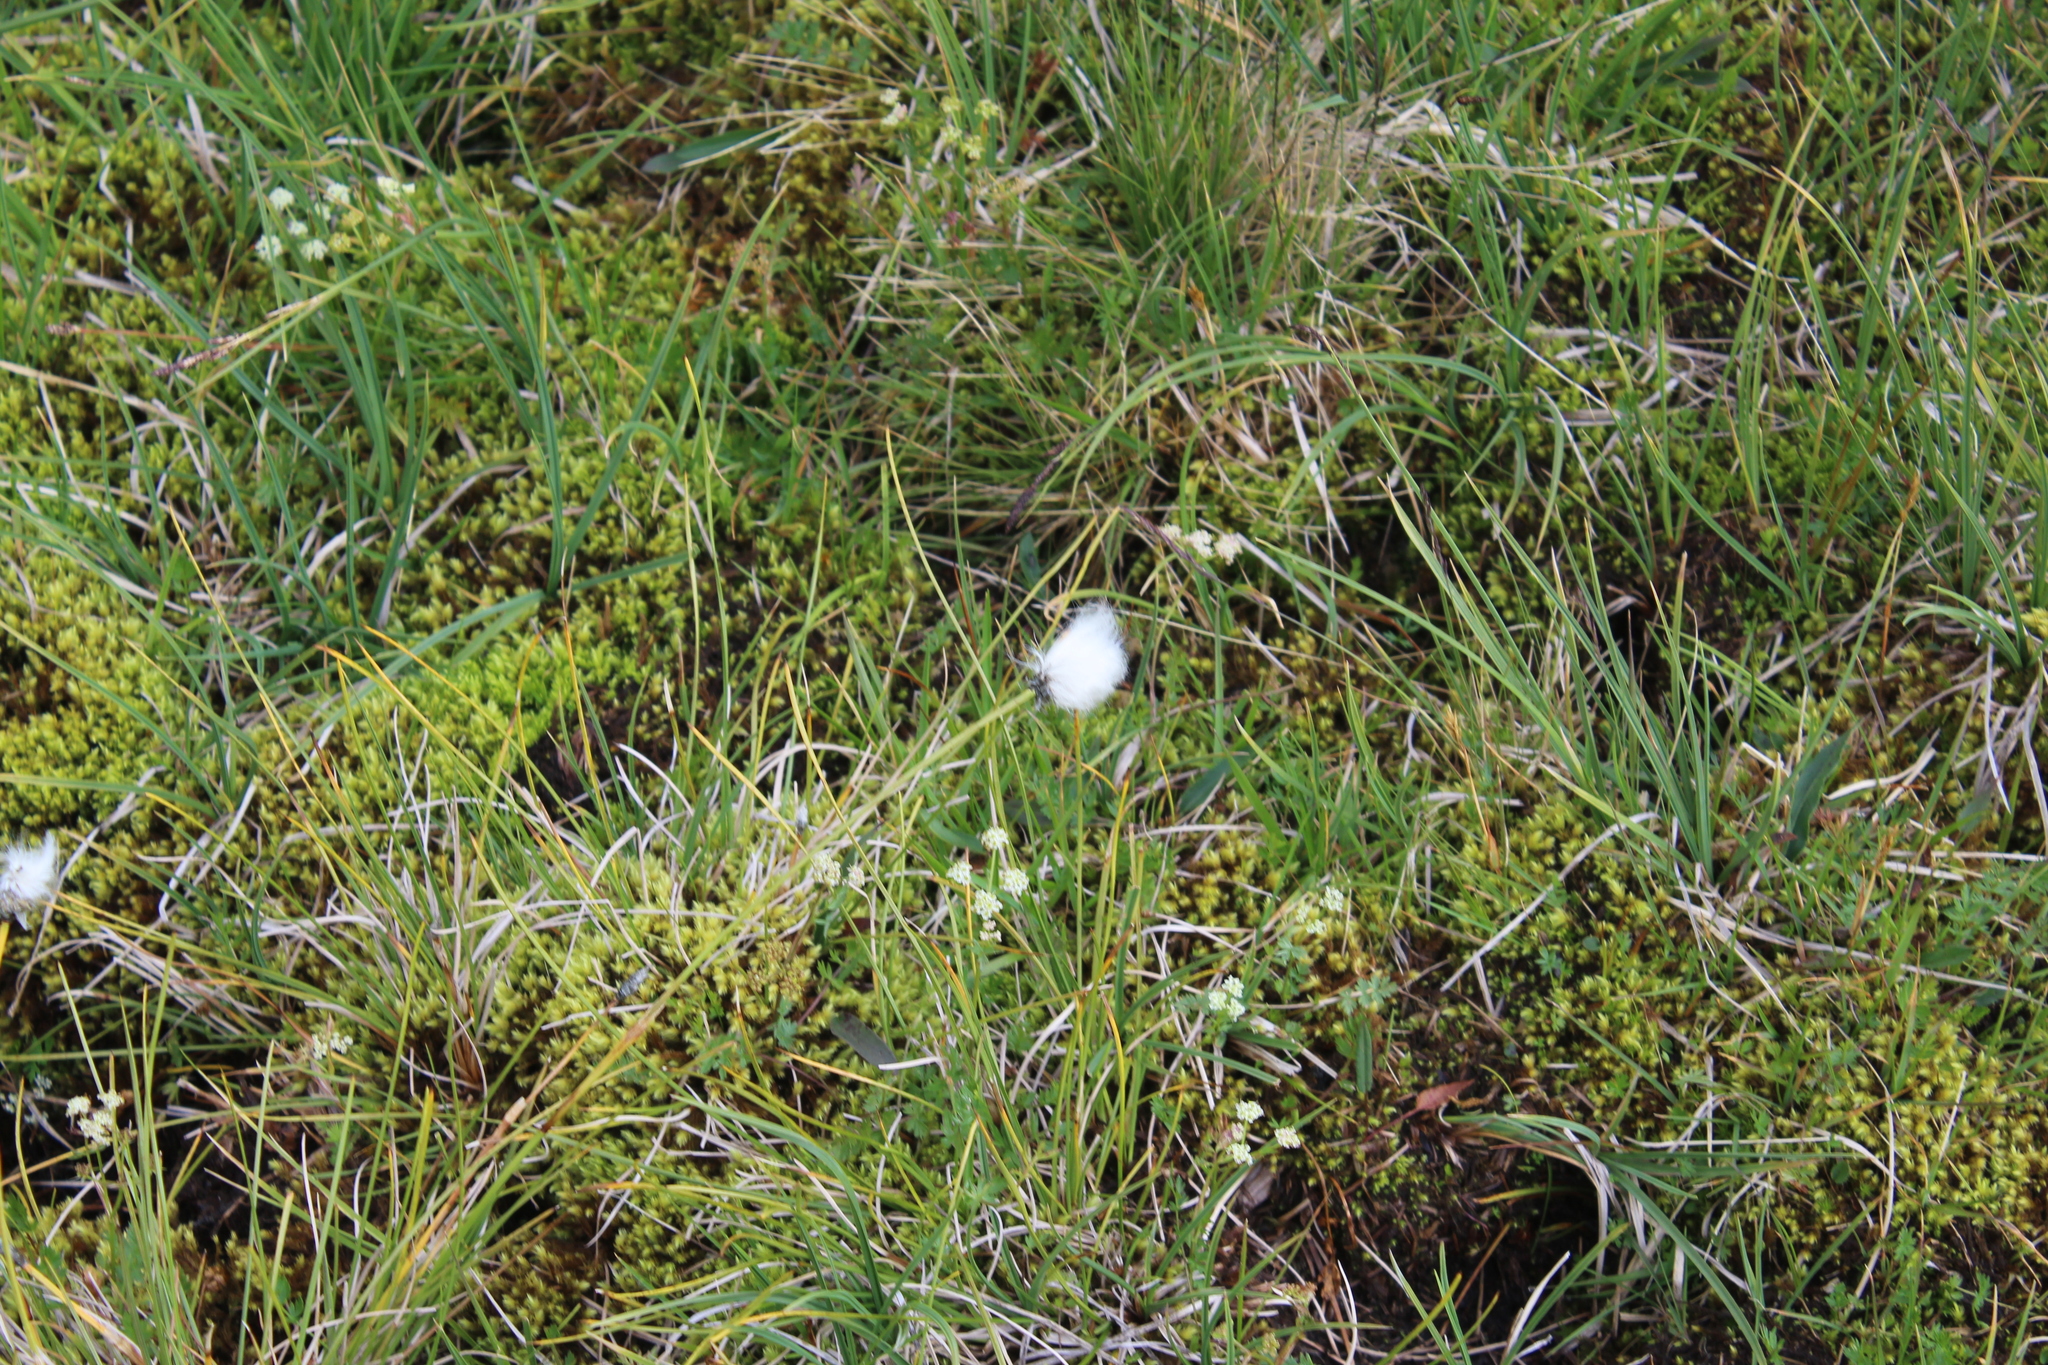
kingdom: Plantae
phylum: Tracheophyta
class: Liliopsida
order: Poales
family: Cyperaceae
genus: Eriophorum
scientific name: Eriophorum vaginatum
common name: Hare's-tail cottongrass
